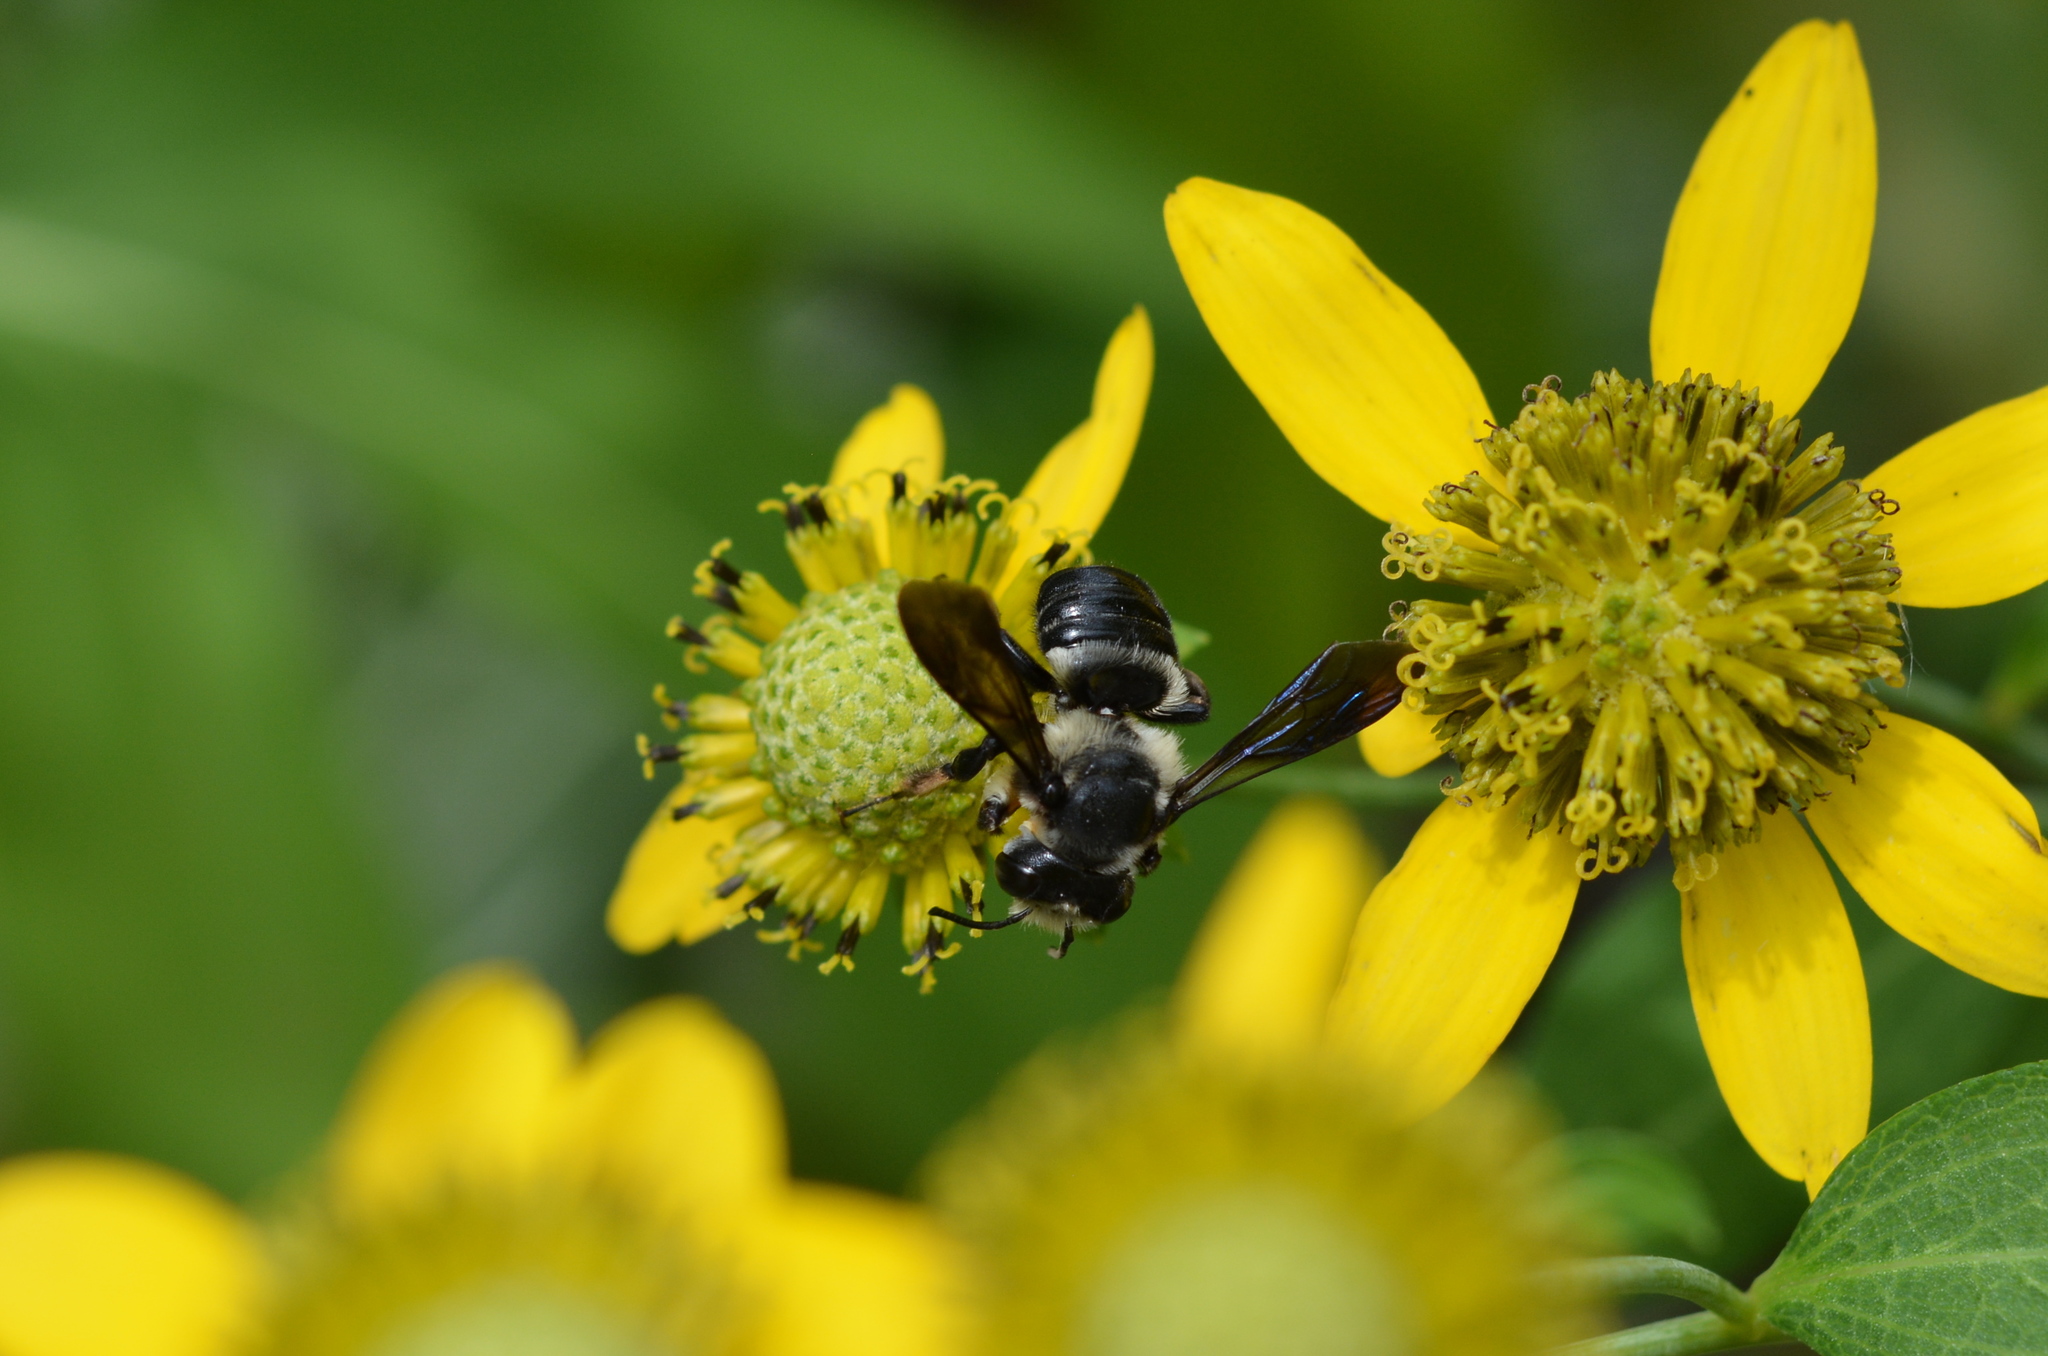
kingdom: Animalia
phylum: Arthropoda
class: Insecta
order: Hymenoptera
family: Megachilidae
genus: Megachile
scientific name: Megachile xylocopoides
